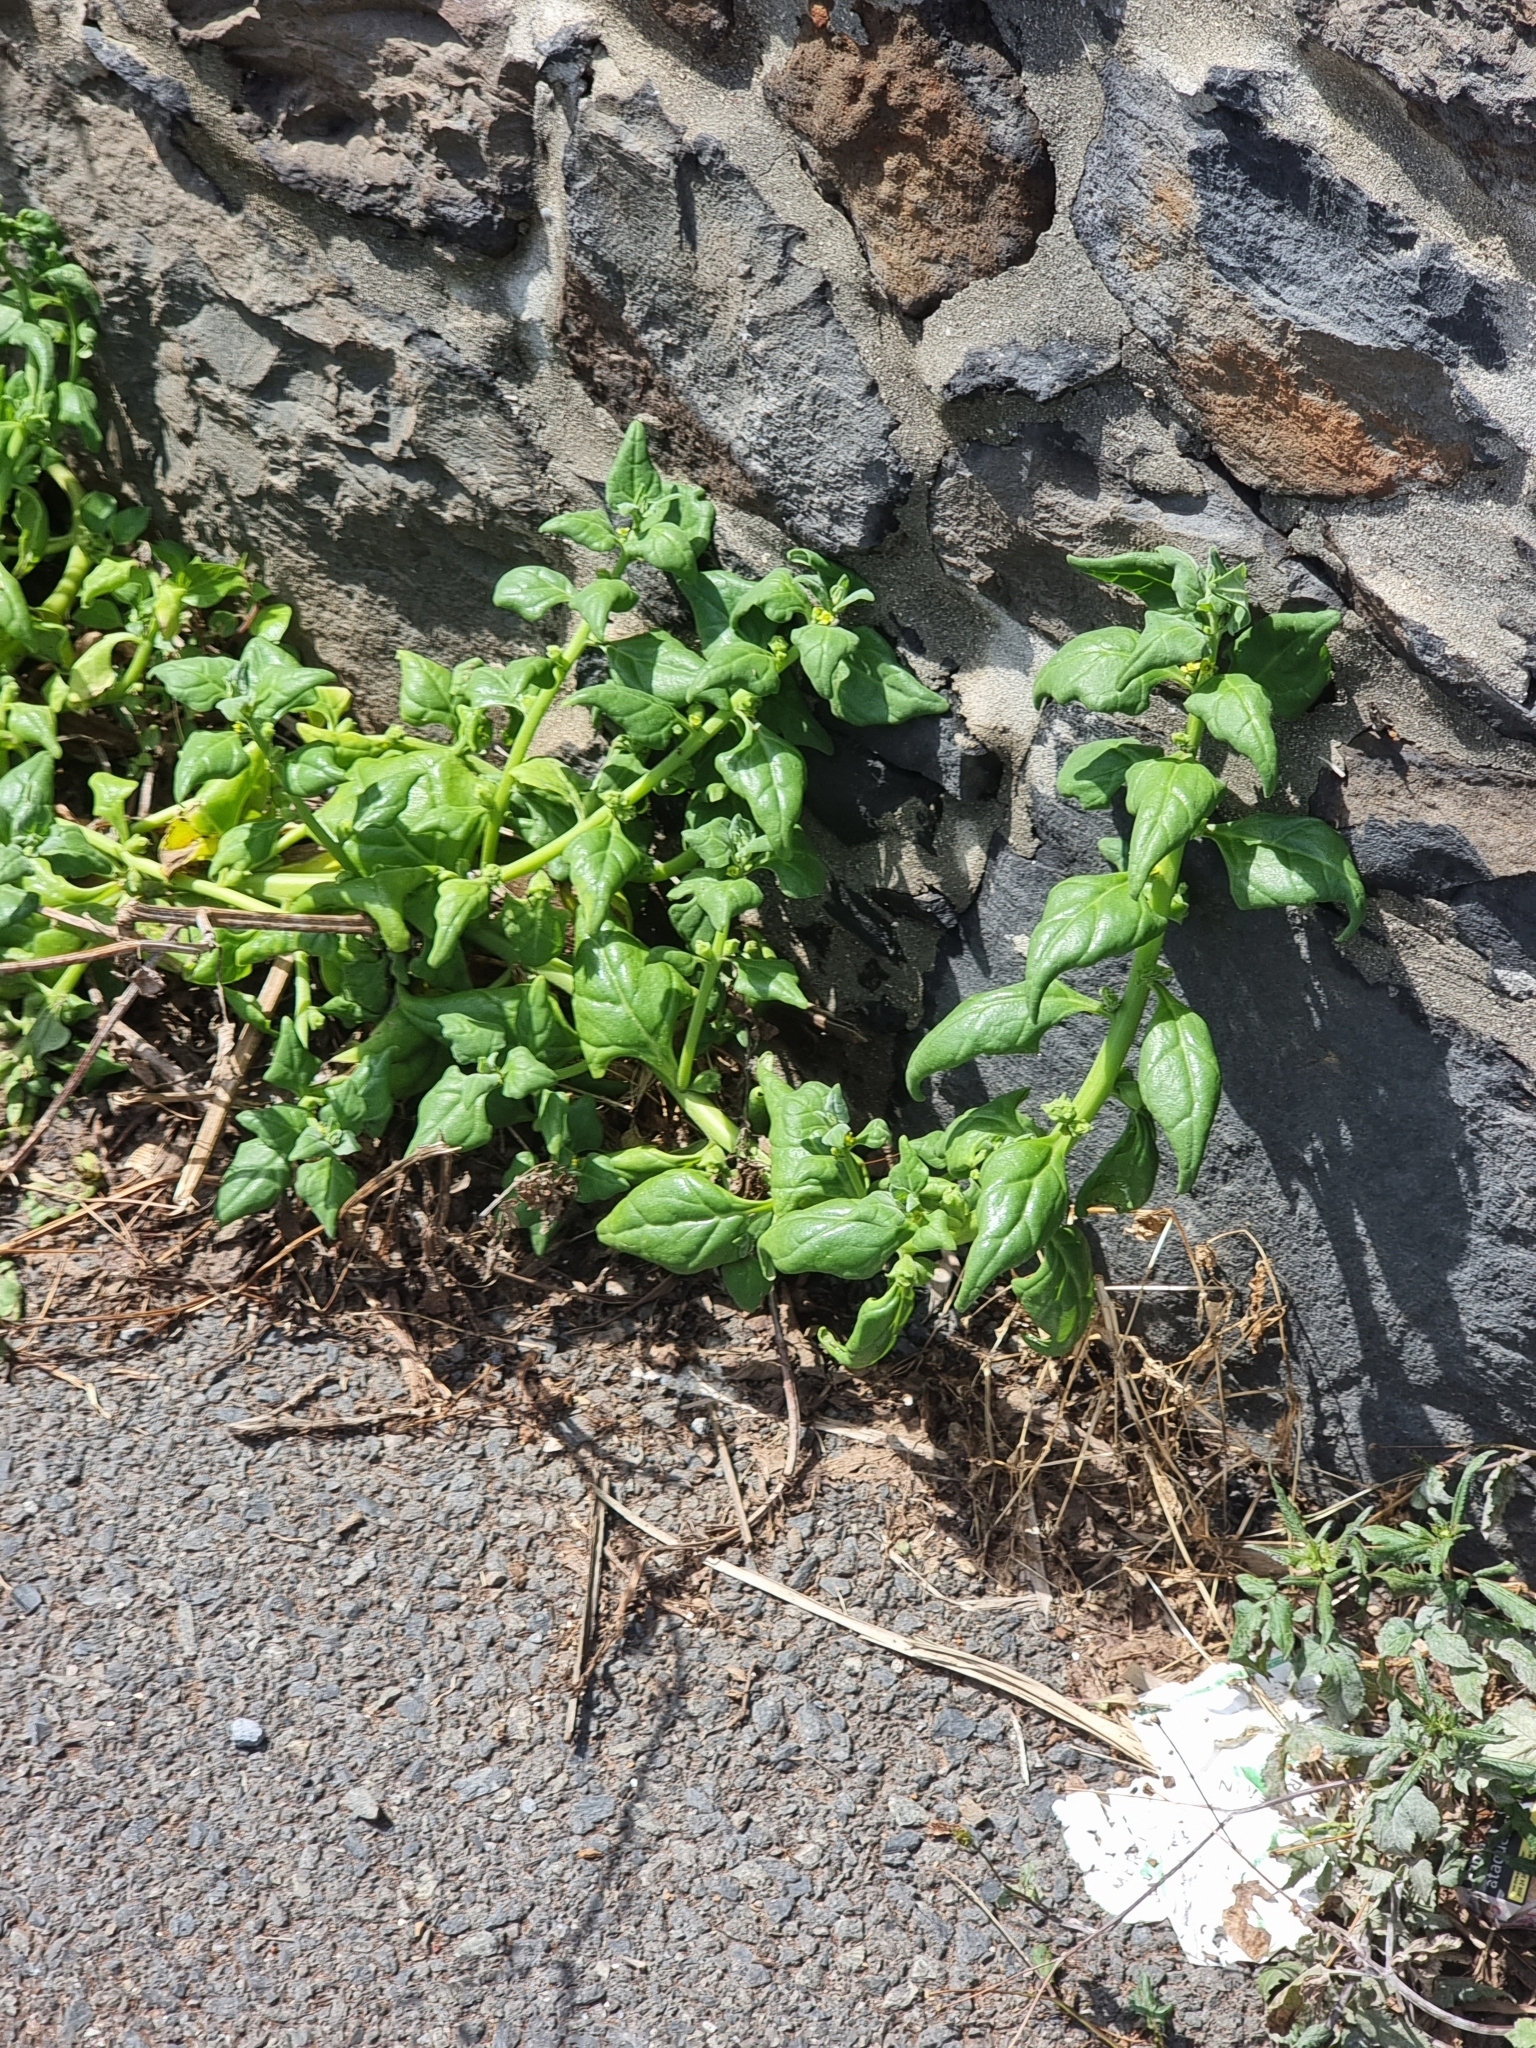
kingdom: Plantae
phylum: Tracheophyta
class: Magnoliopsida
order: Caryophyllales
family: Aizoaceae
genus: Tetragonia
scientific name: Tetragonia tetragonoides
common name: New zealand-spinach
